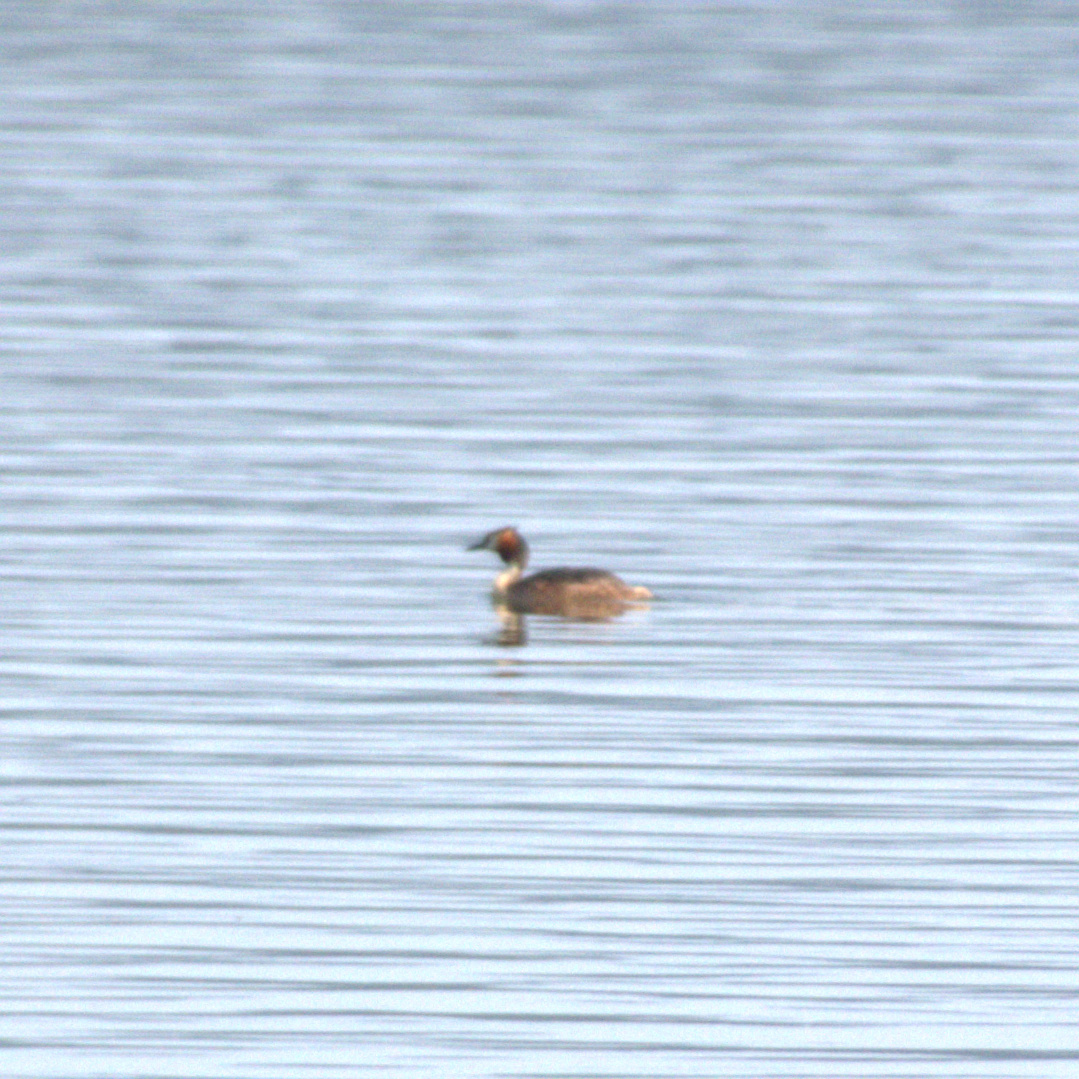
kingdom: Animalia
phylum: Chordata
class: Aves
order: Podicipediformes
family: Podicipedidae
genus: Podiceps
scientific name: Podiceps cristatus
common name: Great crested grebe
